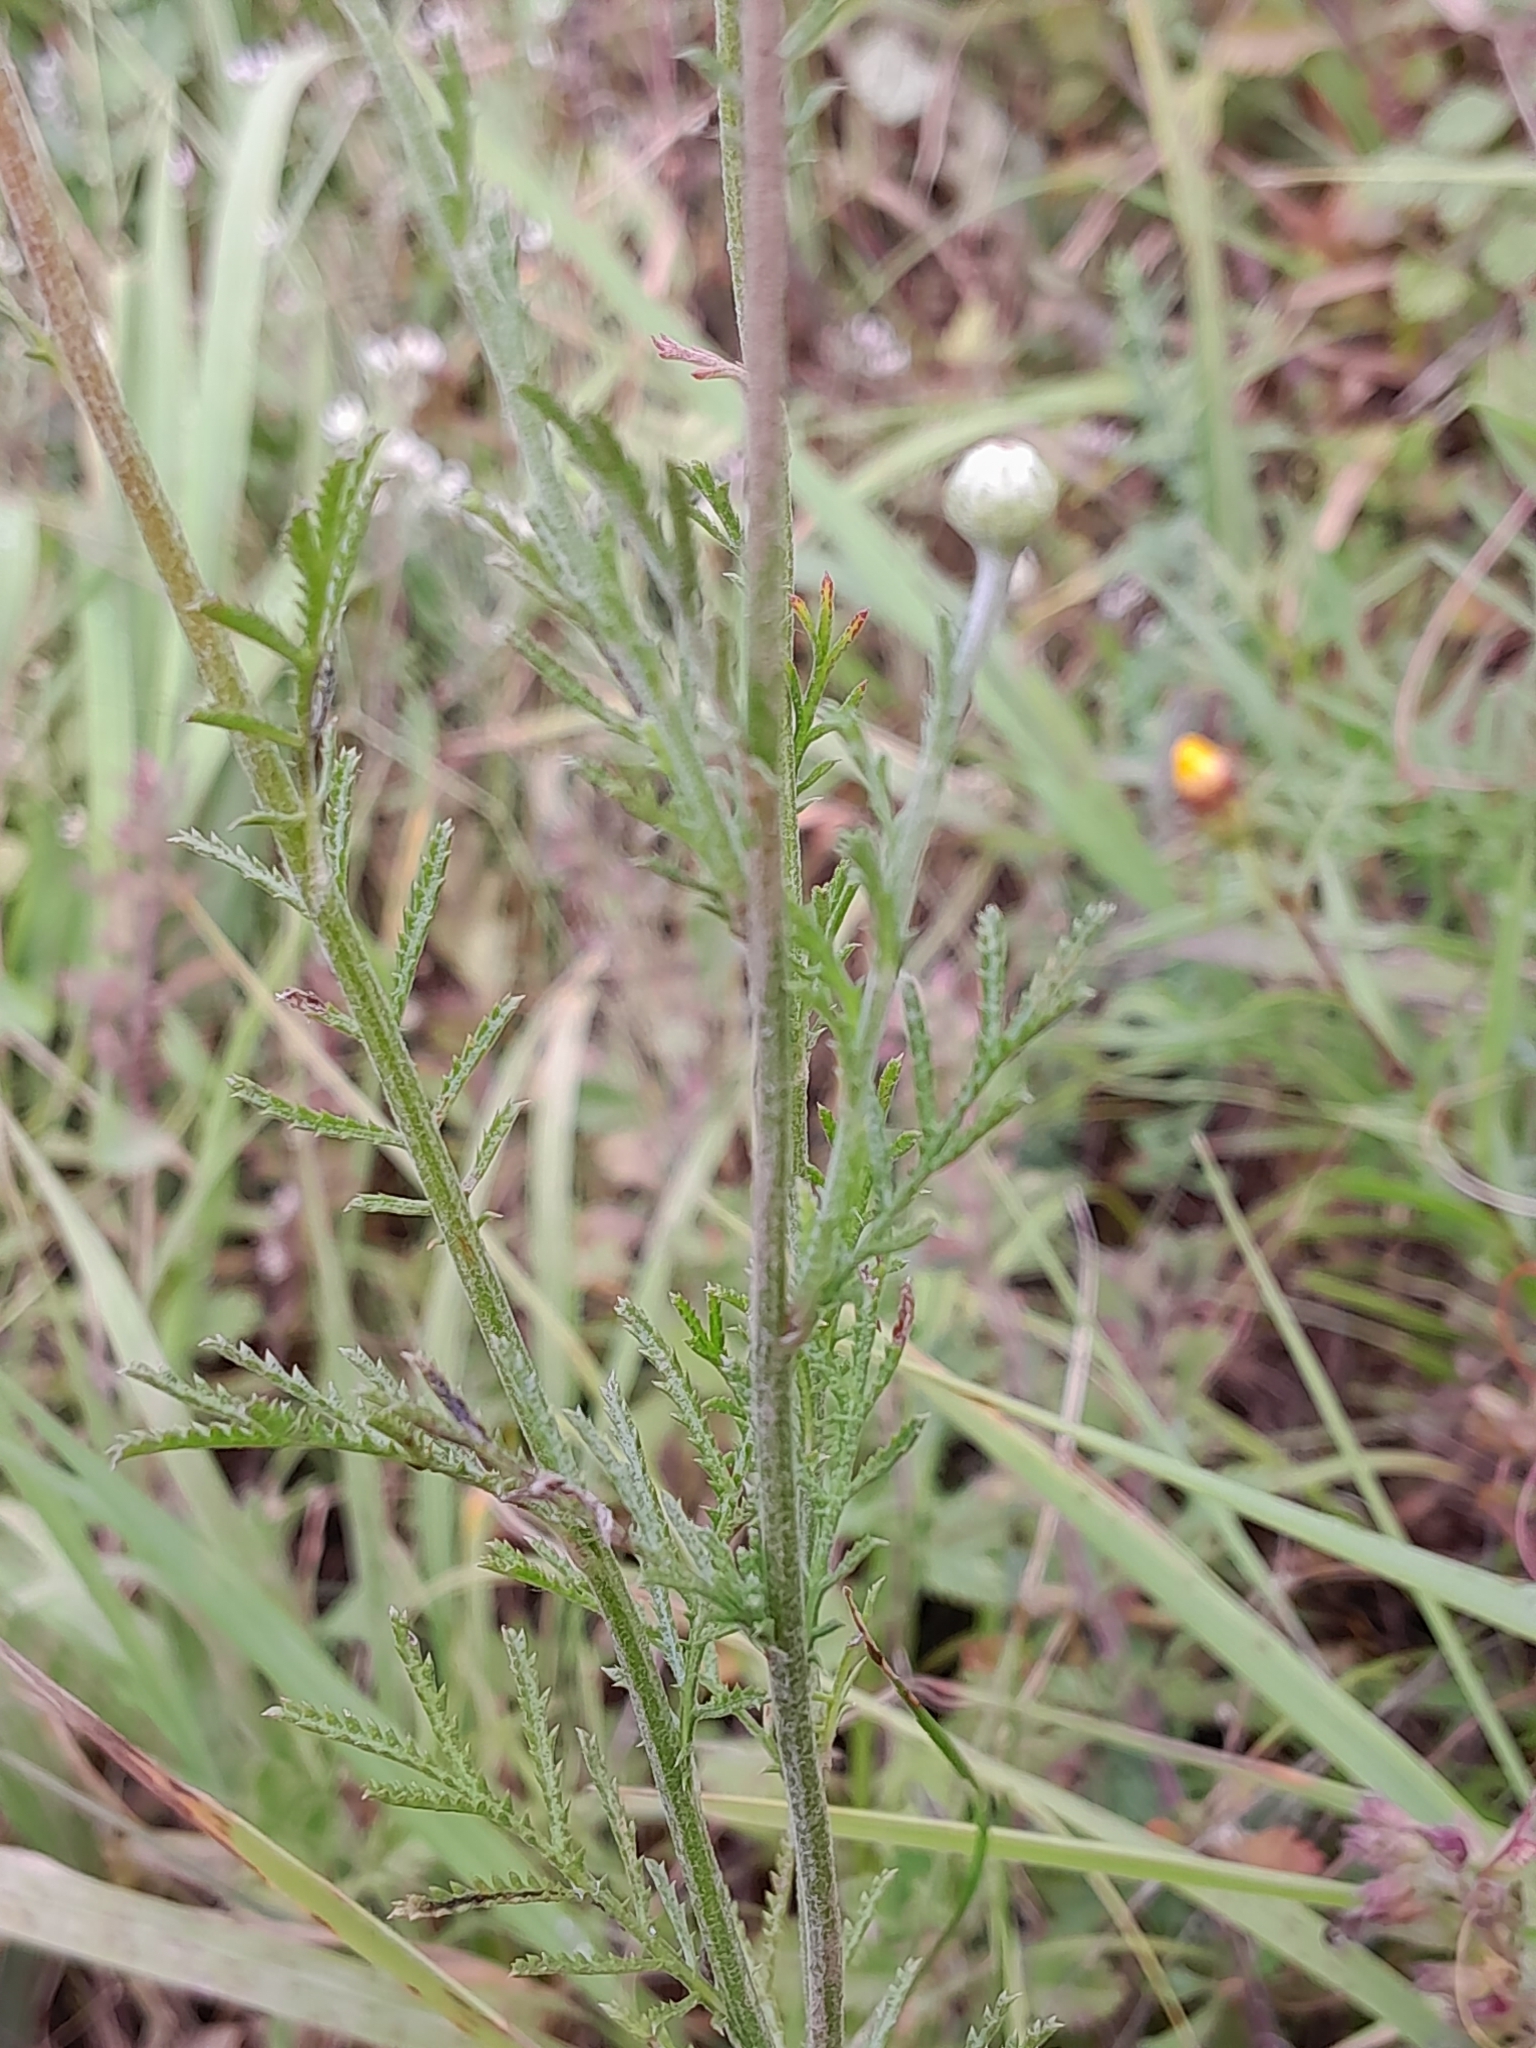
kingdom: Plantae
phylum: Tracheophyta
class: Magnoliopsida
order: Asterales
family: Asteraceae
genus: Cota
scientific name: Cota tinctoria
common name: Golden chamomile
